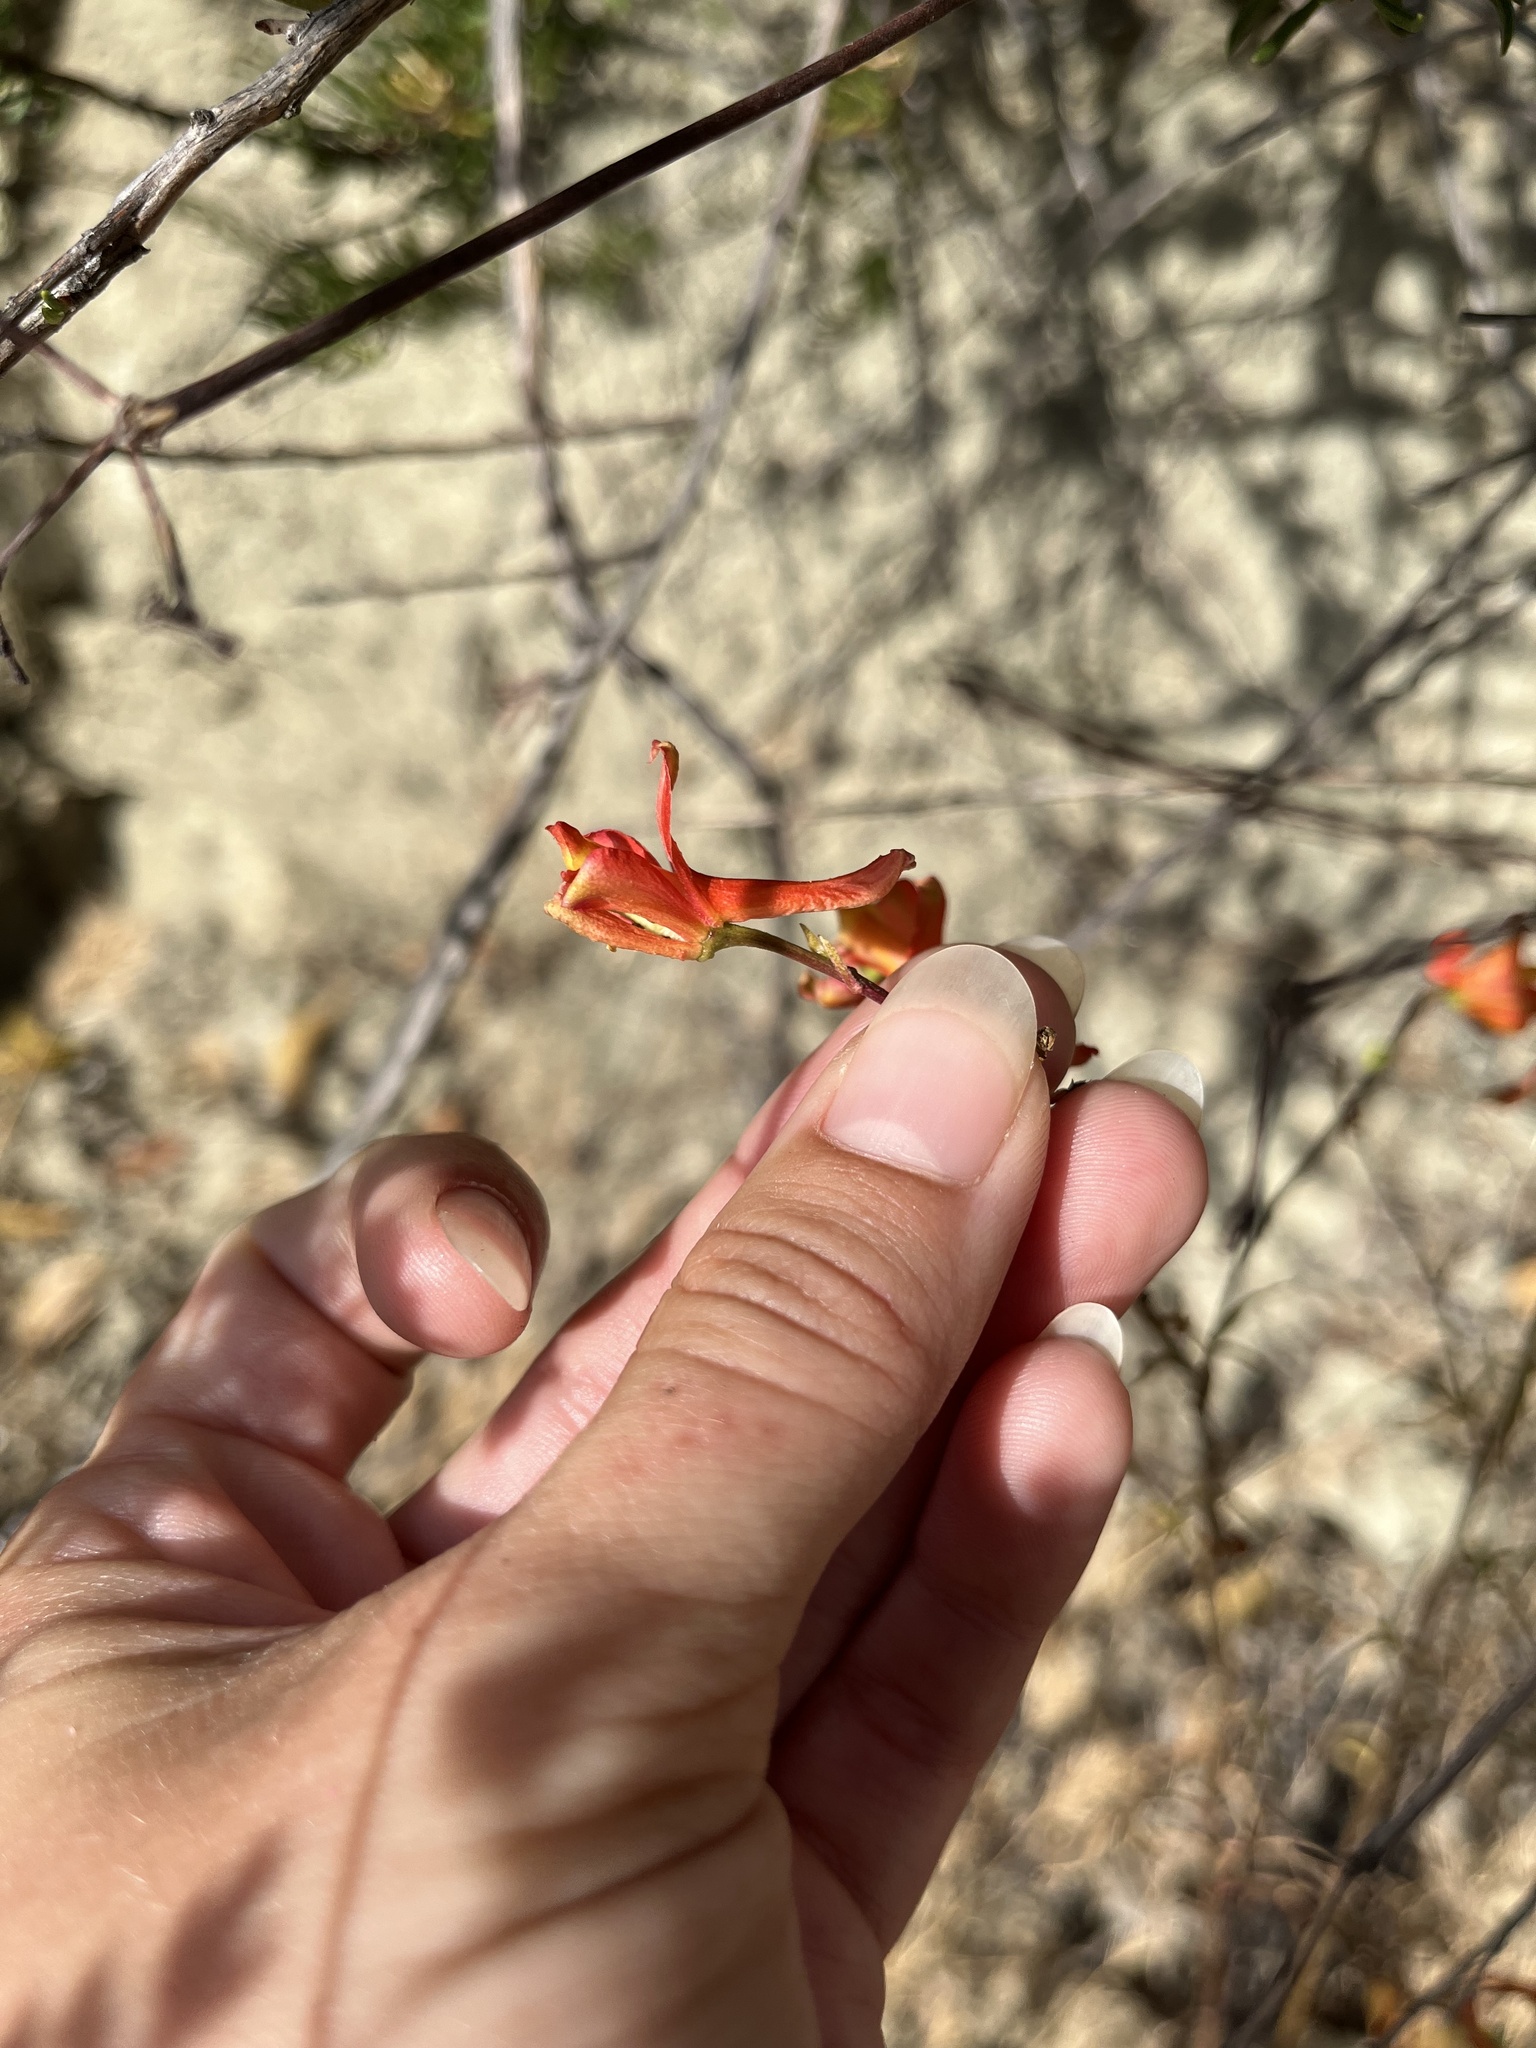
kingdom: Plantae
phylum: Tracheophyta
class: Magnoliopsida
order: Ranunculales
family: Ranunculaceae
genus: Delphinium
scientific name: Delphinium cardinale
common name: Scarlet larkspur
